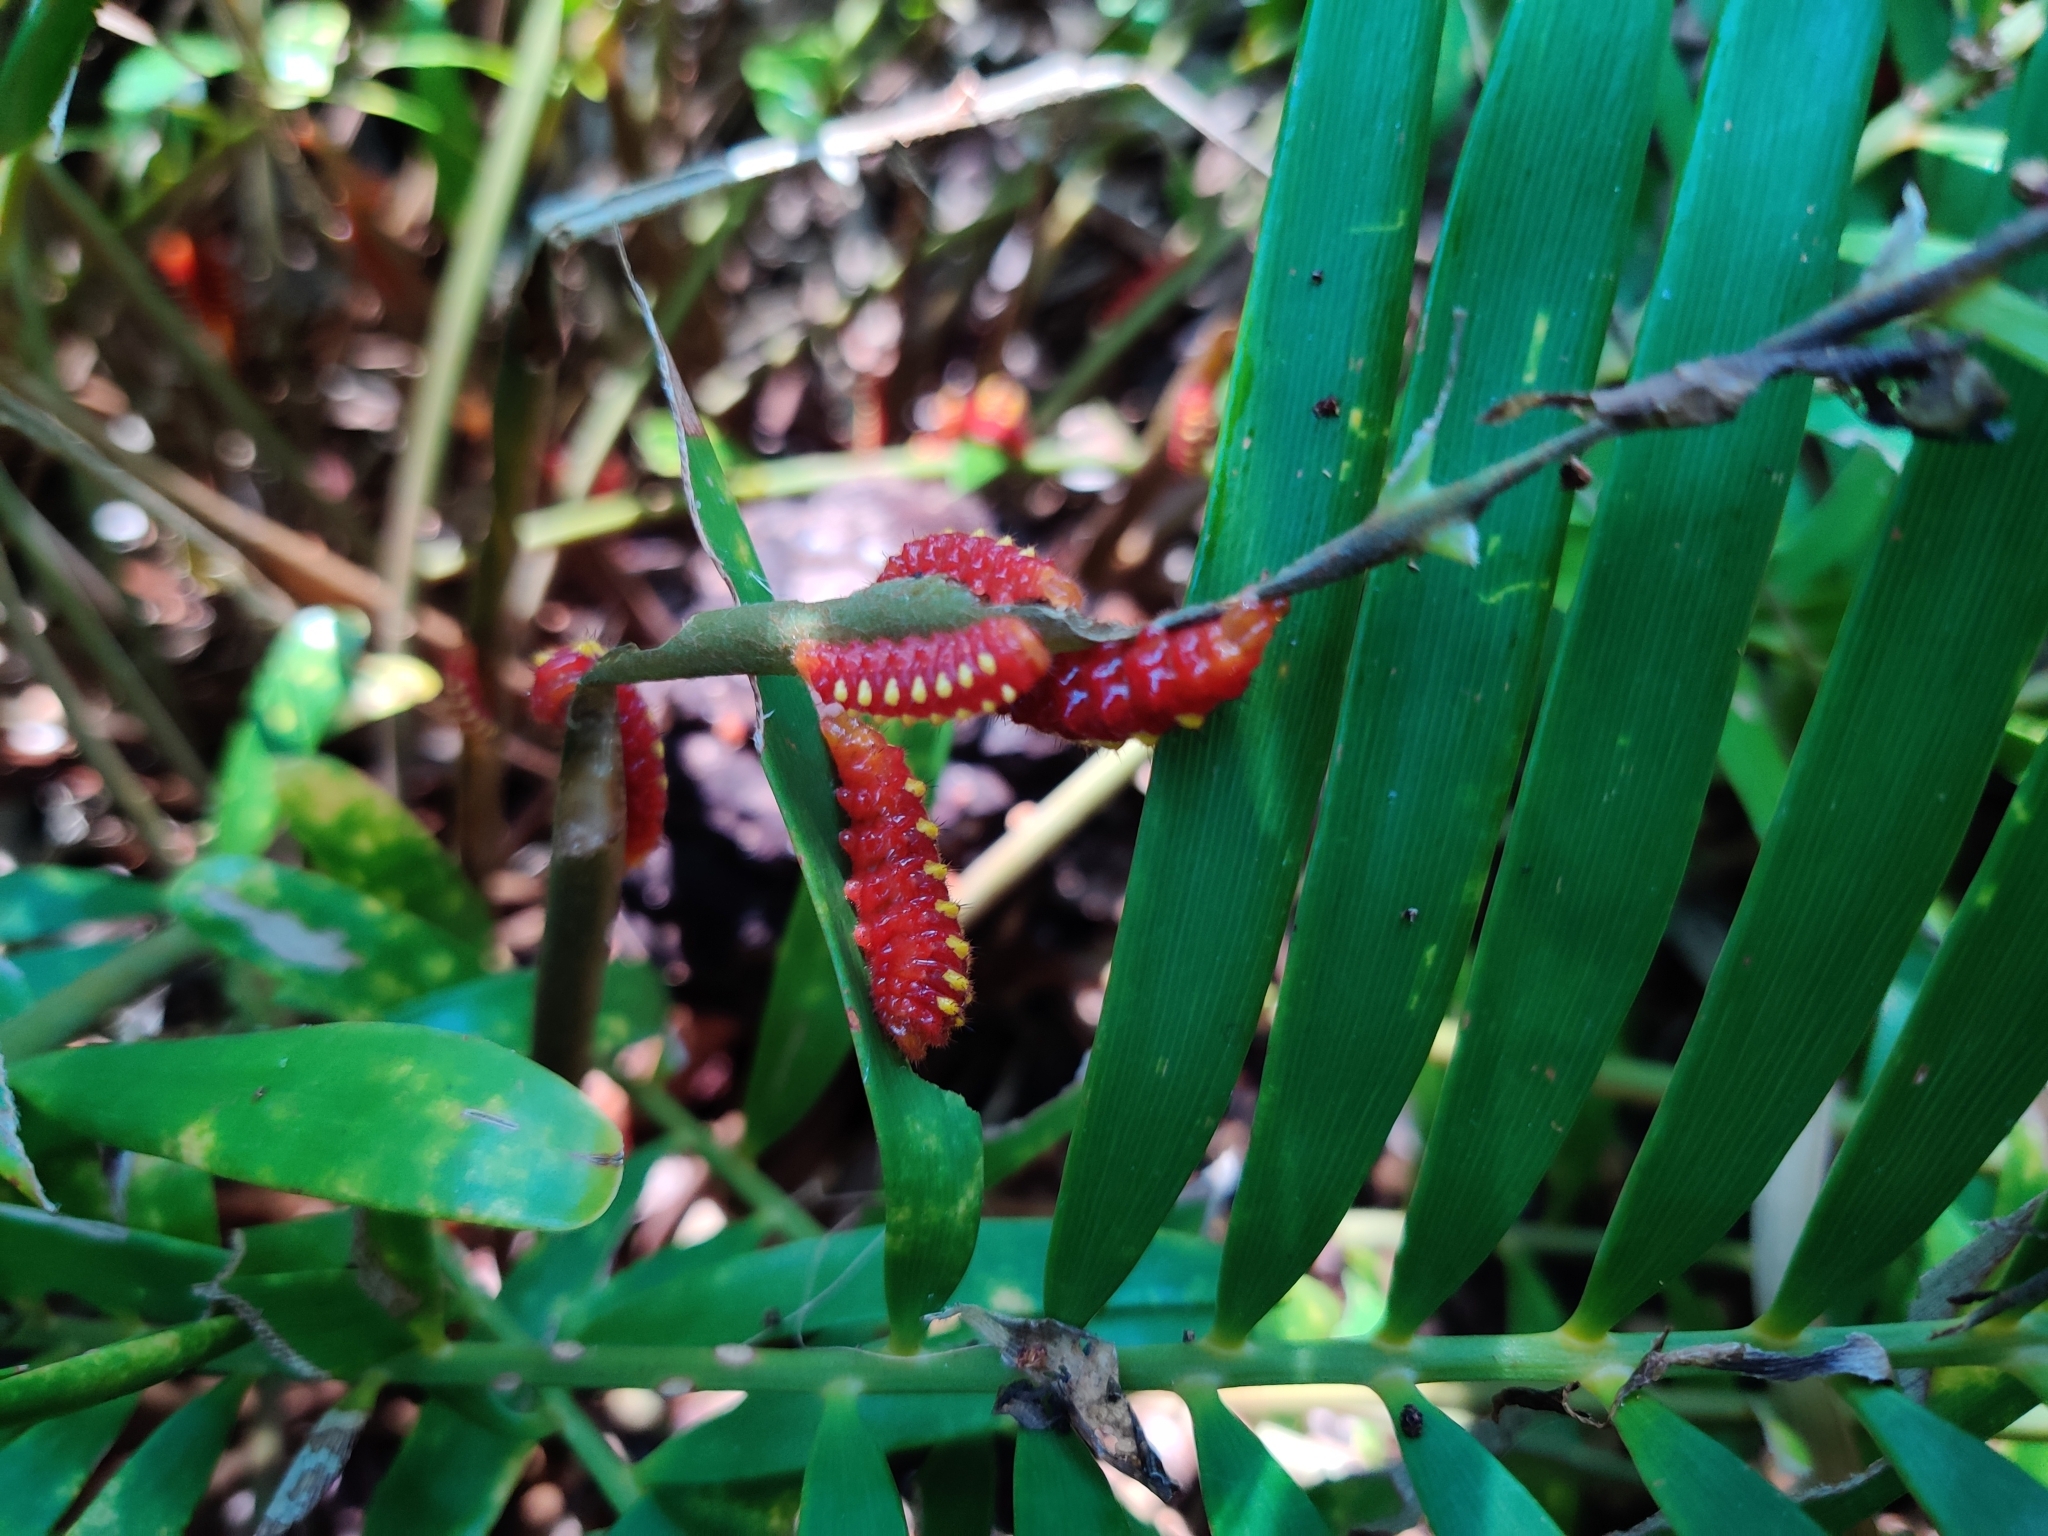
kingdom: Animalia
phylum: Arthropoda
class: Insecta
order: Lepidoptera
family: Lycaenidae
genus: Eumaeus
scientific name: Eumaeus atala
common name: Atala
